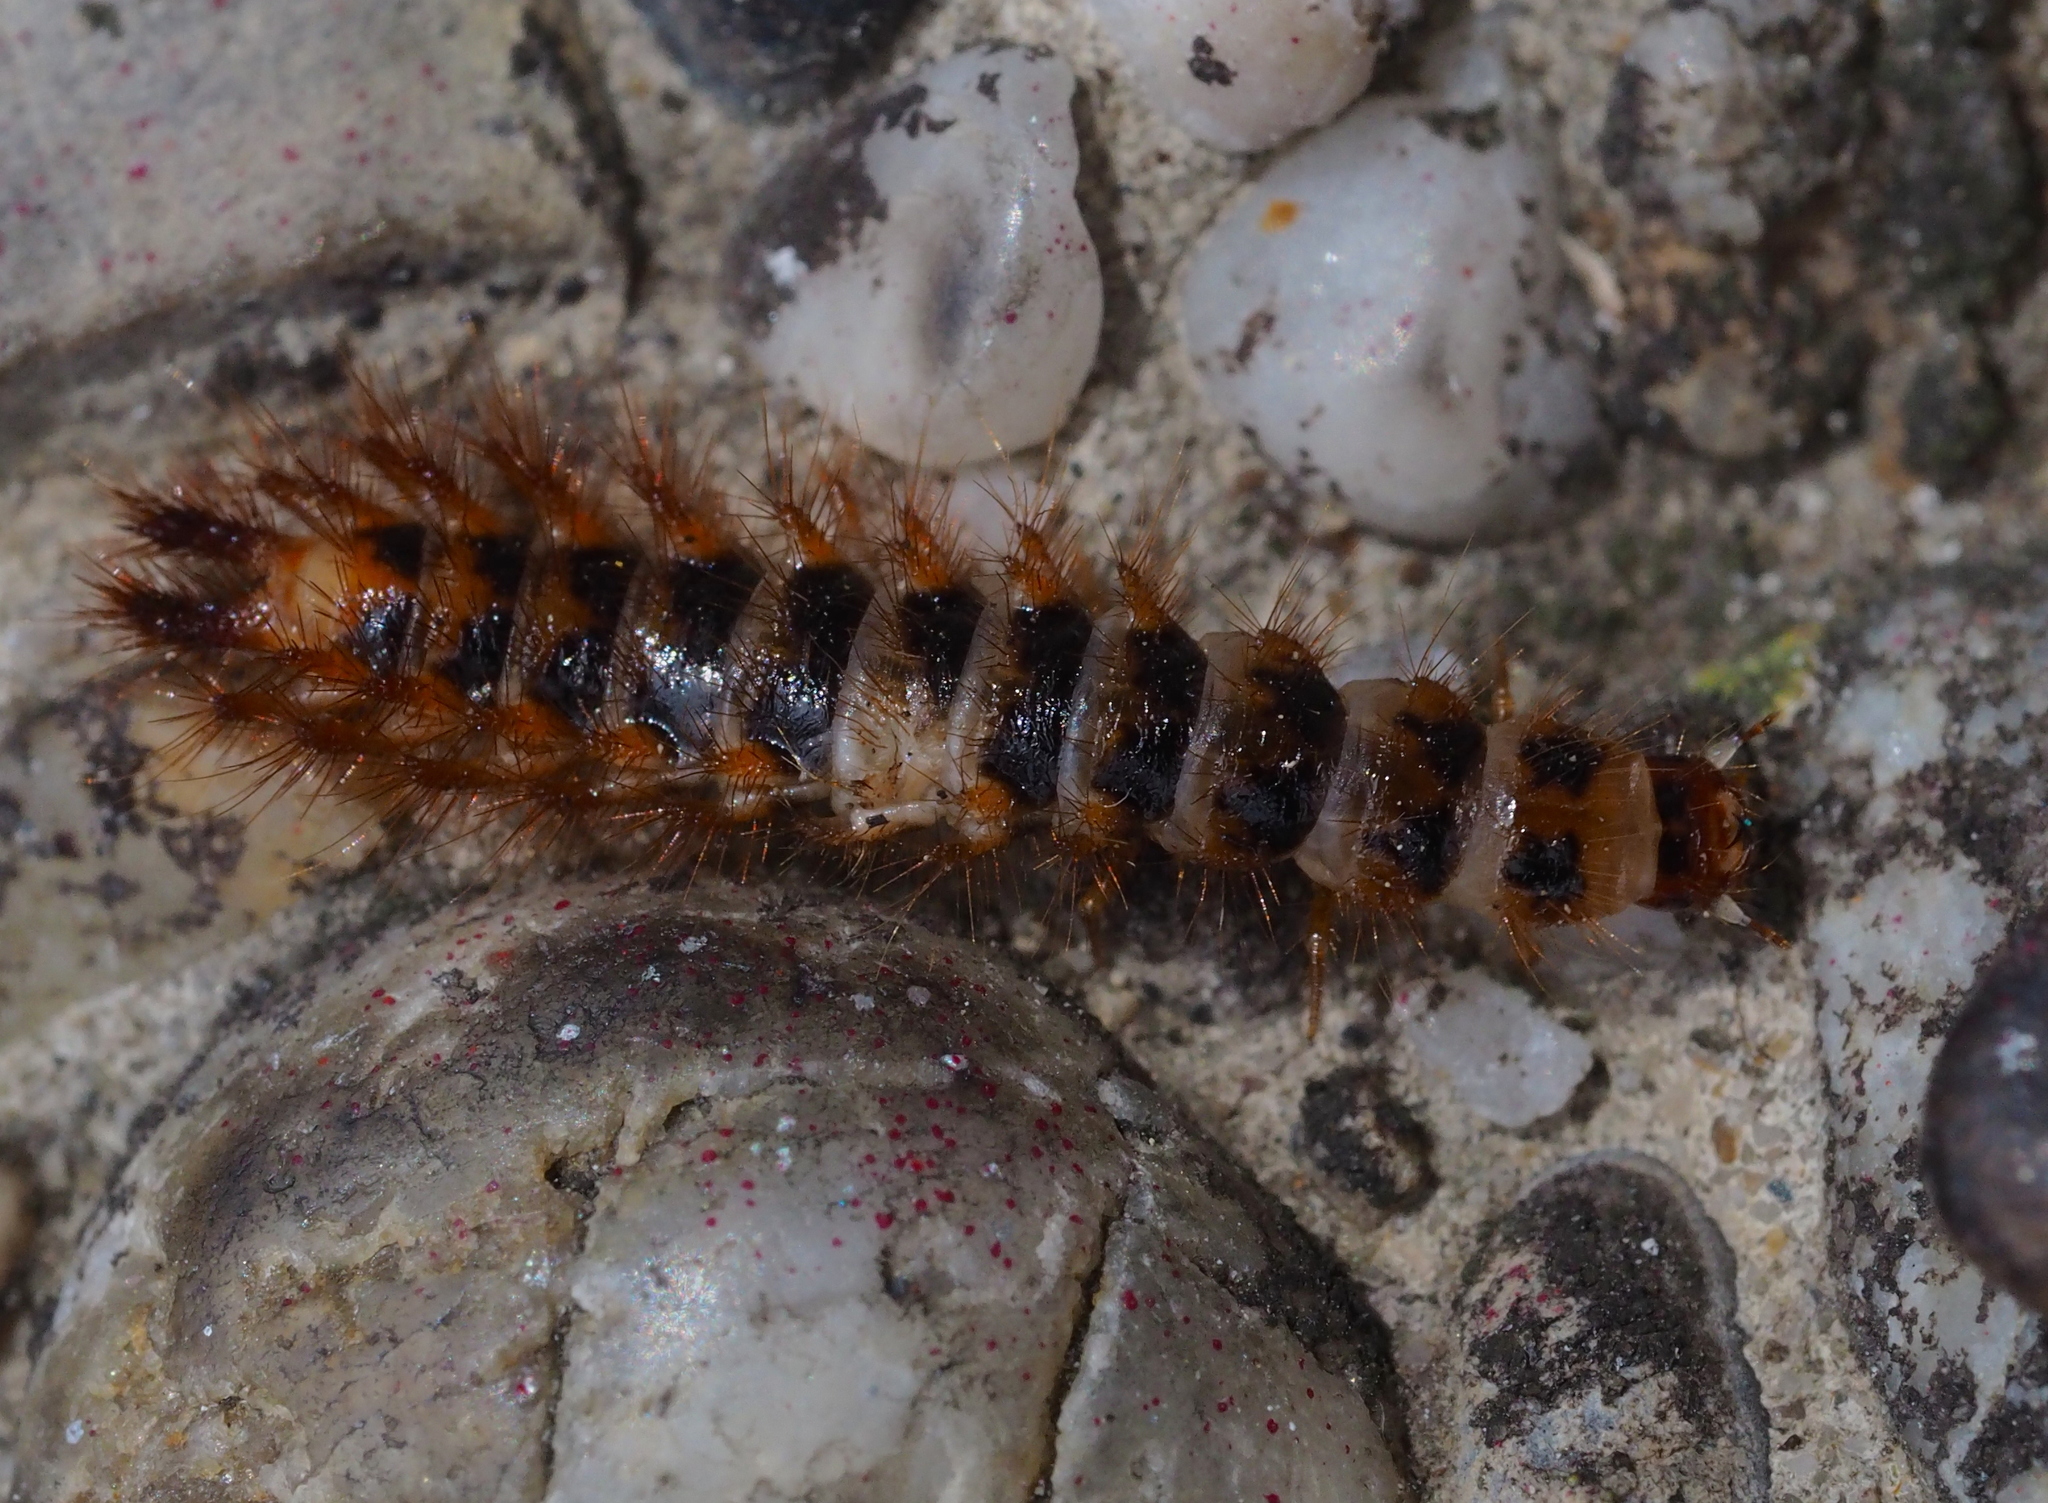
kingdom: Animalia
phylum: Arthropoda
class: Insecta
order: Coleoptera
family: Drilidae
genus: Drilus
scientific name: Drilus concolor
